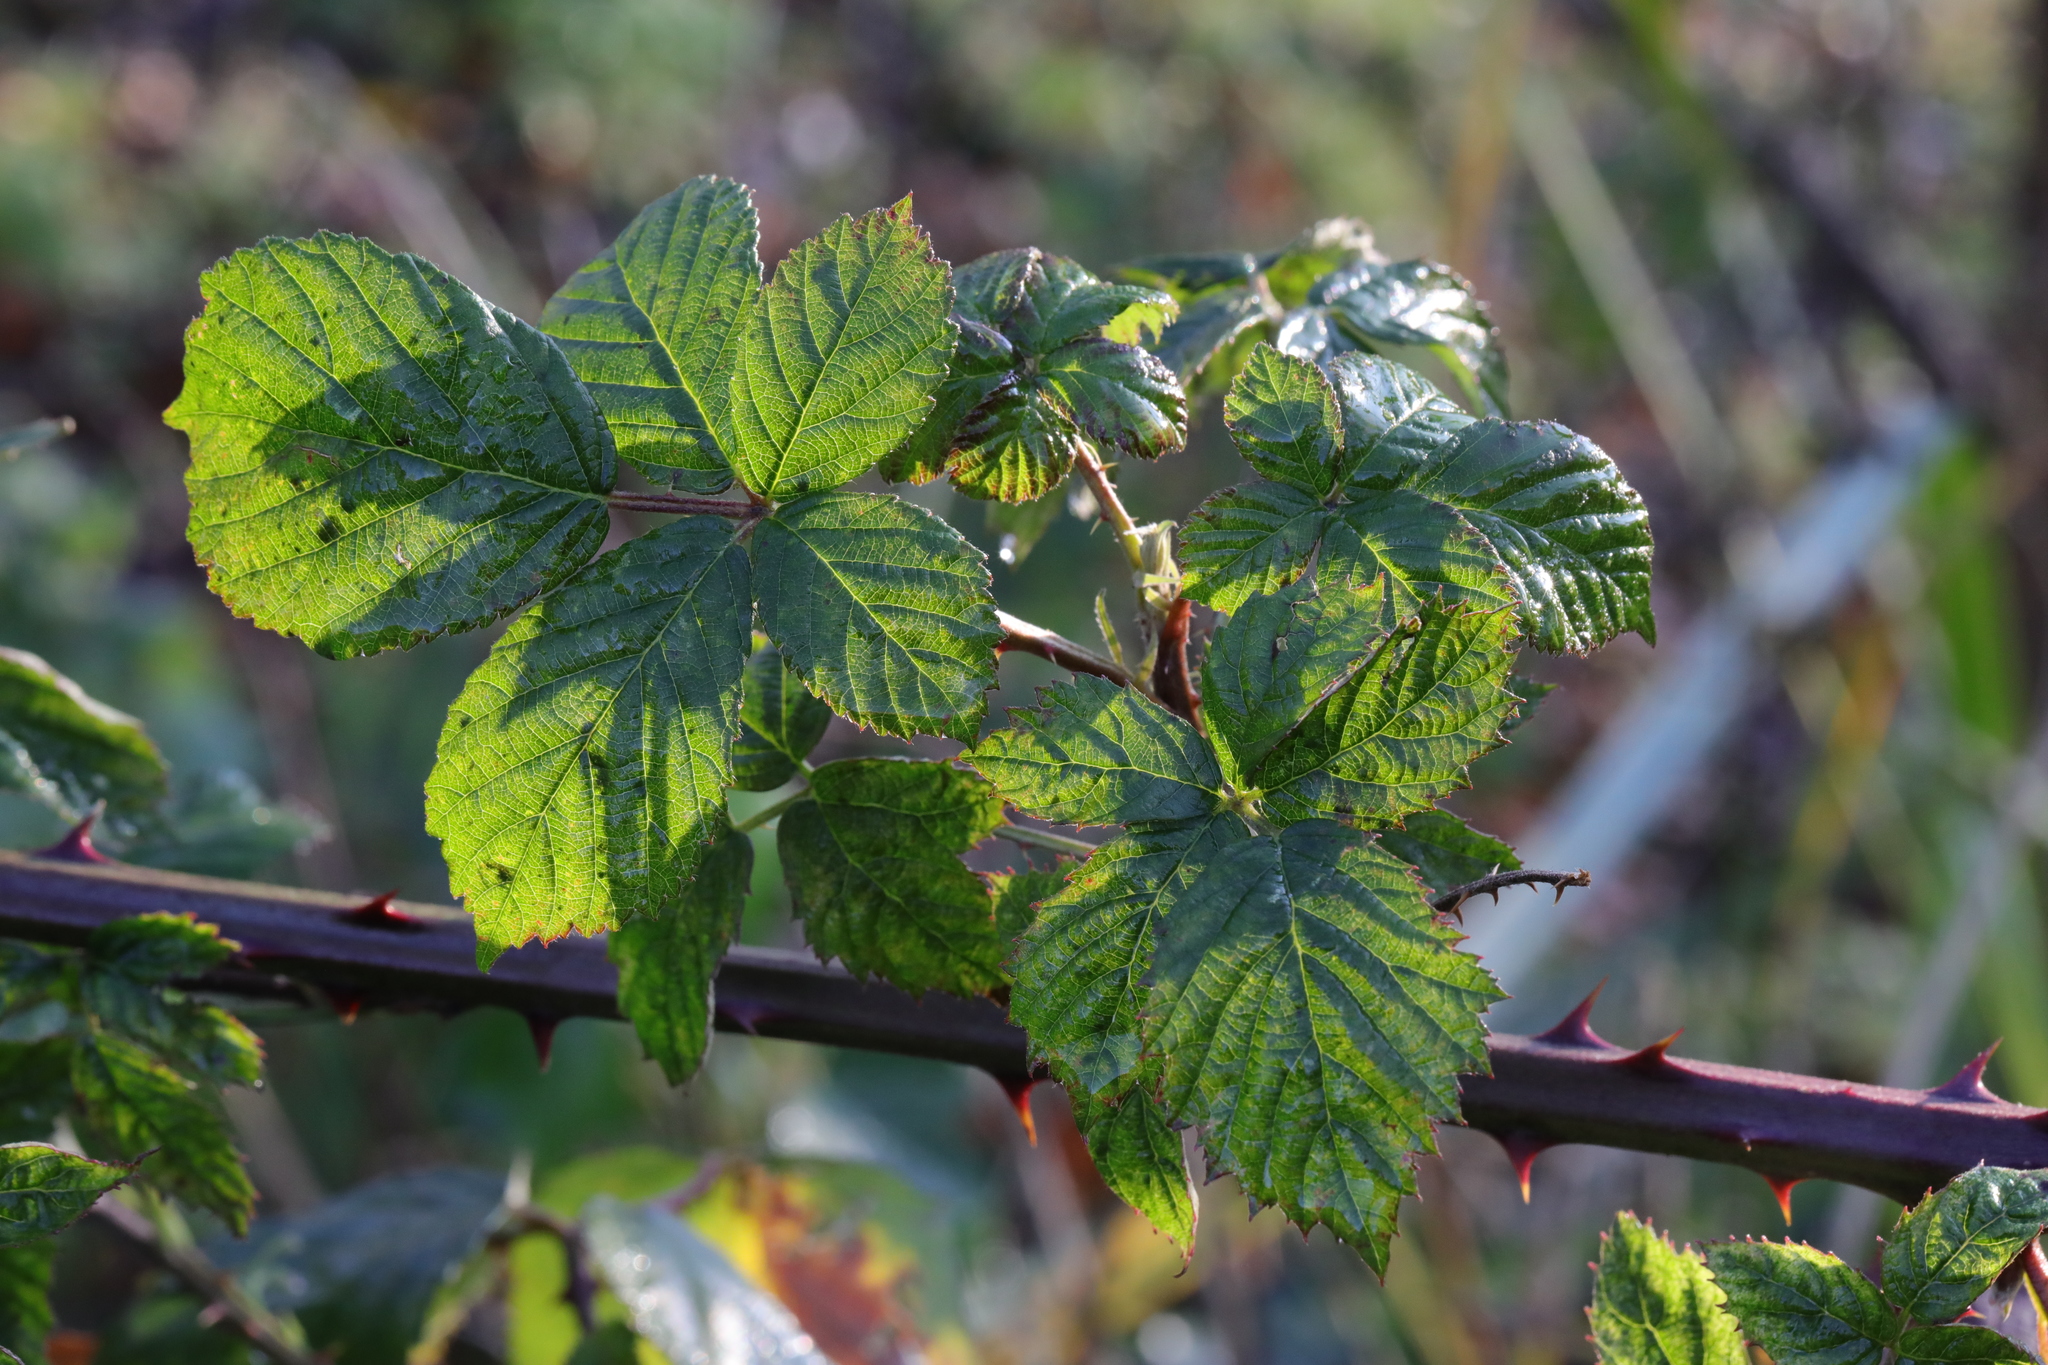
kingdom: Plantae
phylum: Tracheophyta
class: Magnoliopsida
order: Rosales
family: Rosaceae
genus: Rubus
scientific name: Rubus armeniacus
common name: Himalayan blackberry
